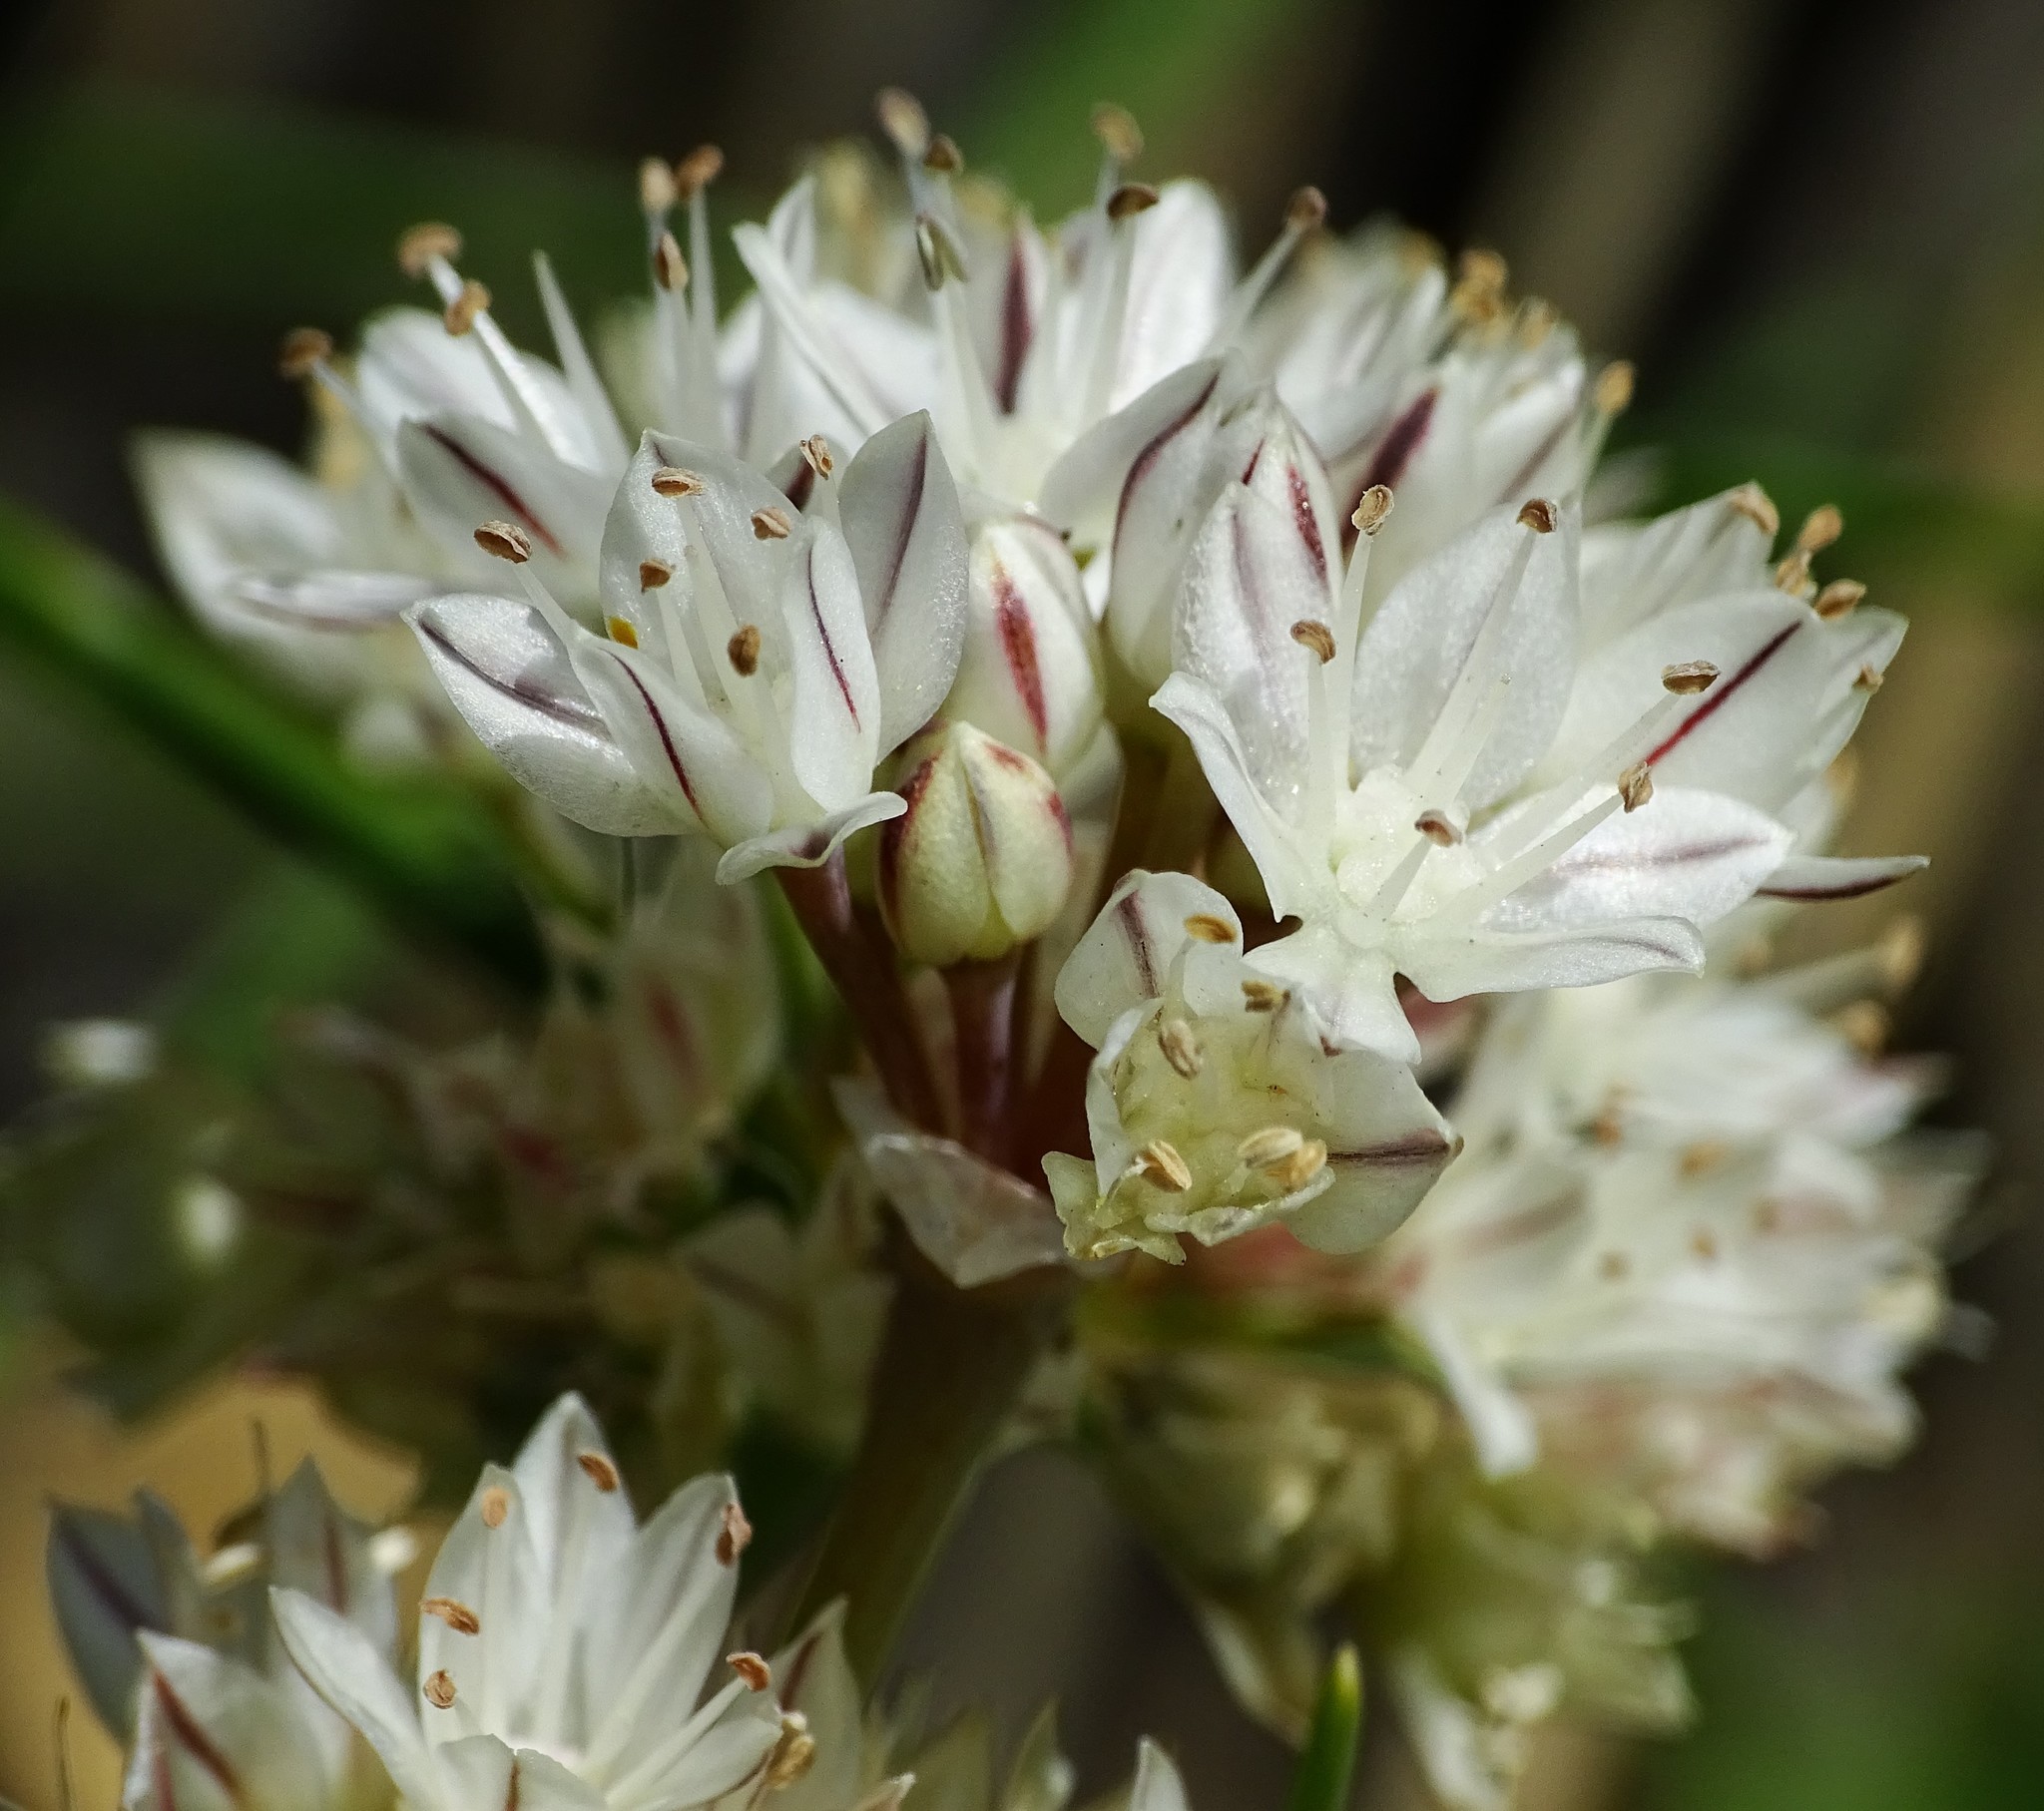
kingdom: Plantae
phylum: Tracheophyta
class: Liliopsida
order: Asparagales
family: Amaryllidaceae
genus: Allium
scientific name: Allium haematochiton
